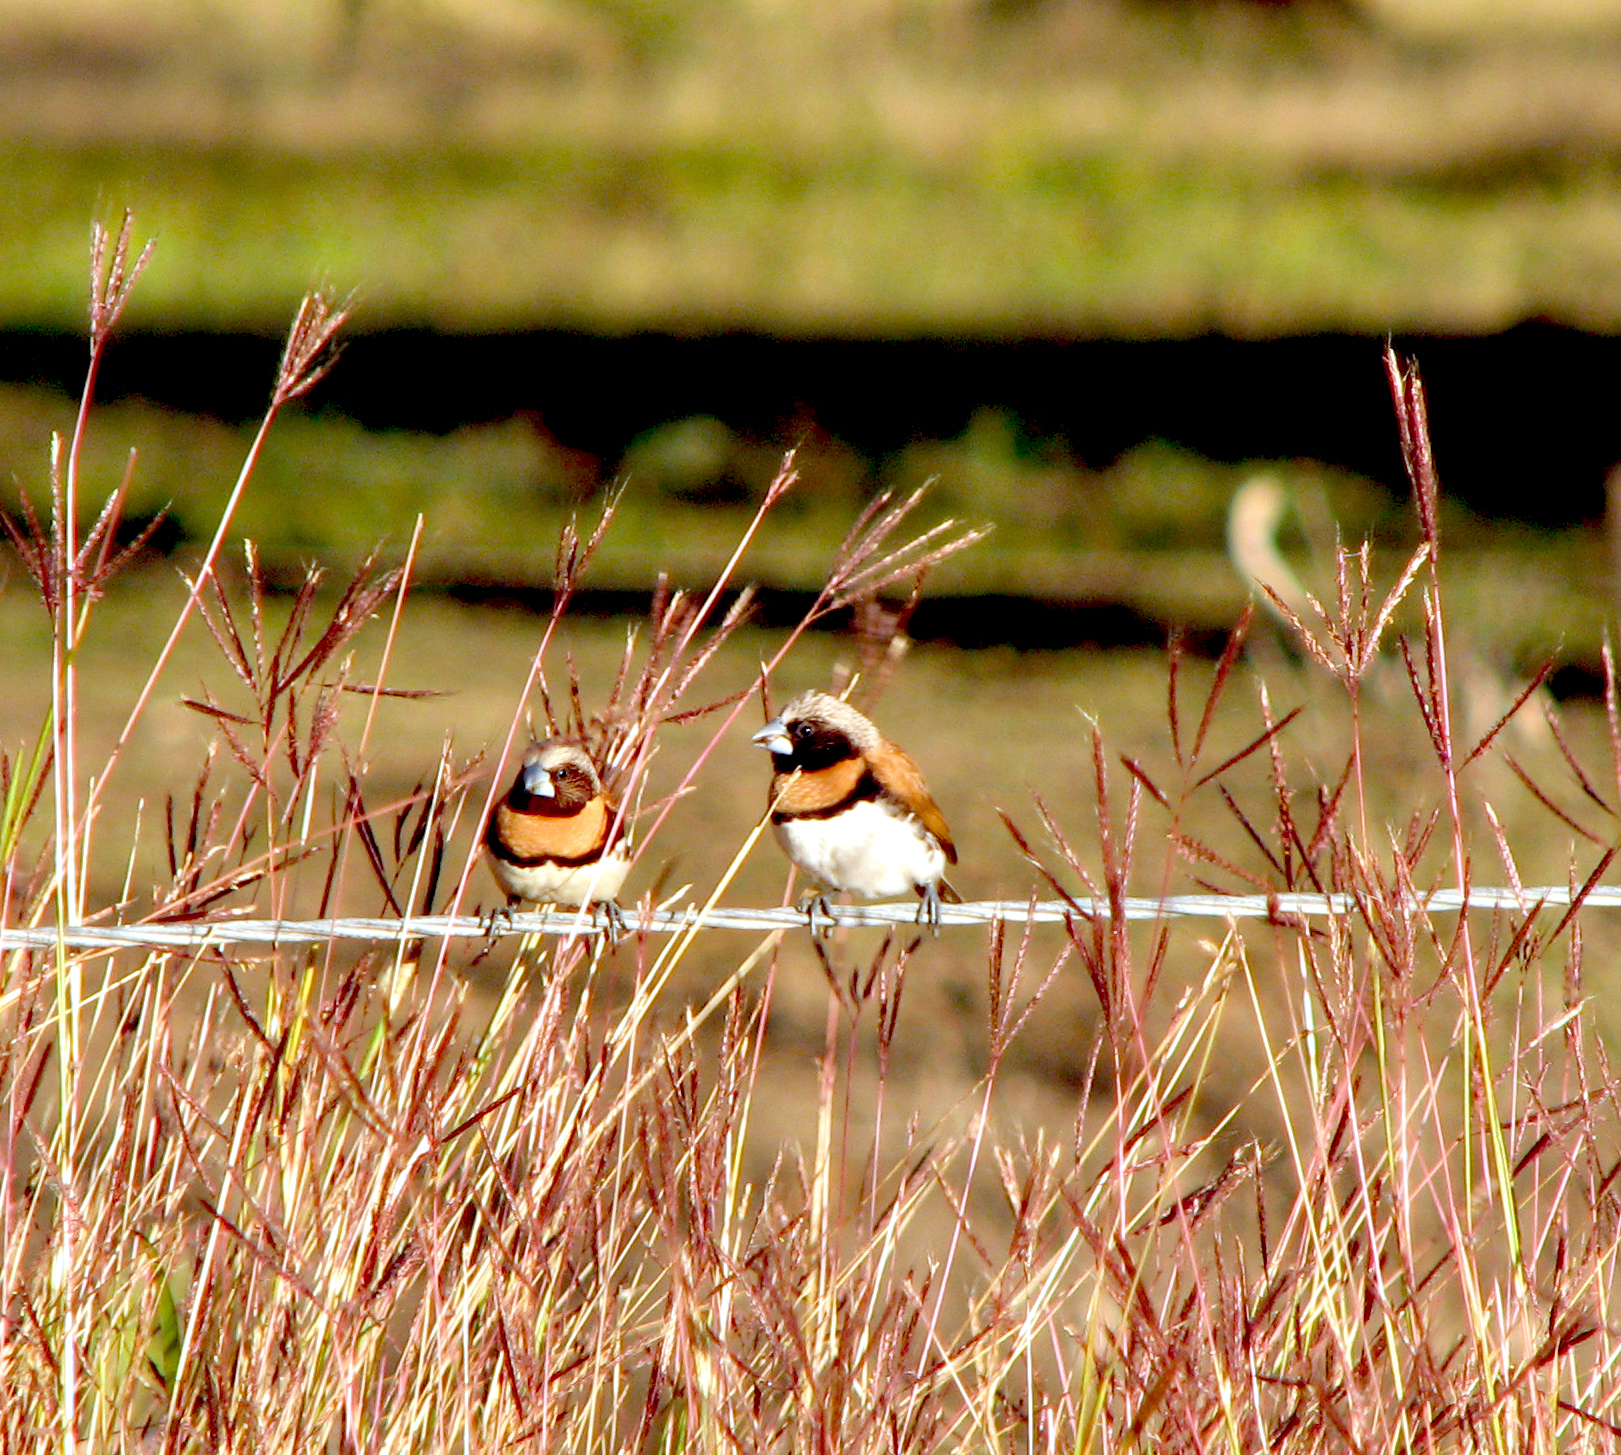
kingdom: Animalia
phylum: Chordata
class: Aves
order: Passeriformes
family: Estrildidae
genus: Lonchura
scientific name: Lonchura castaneothorax
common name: Chestnut-breasted mannikin
